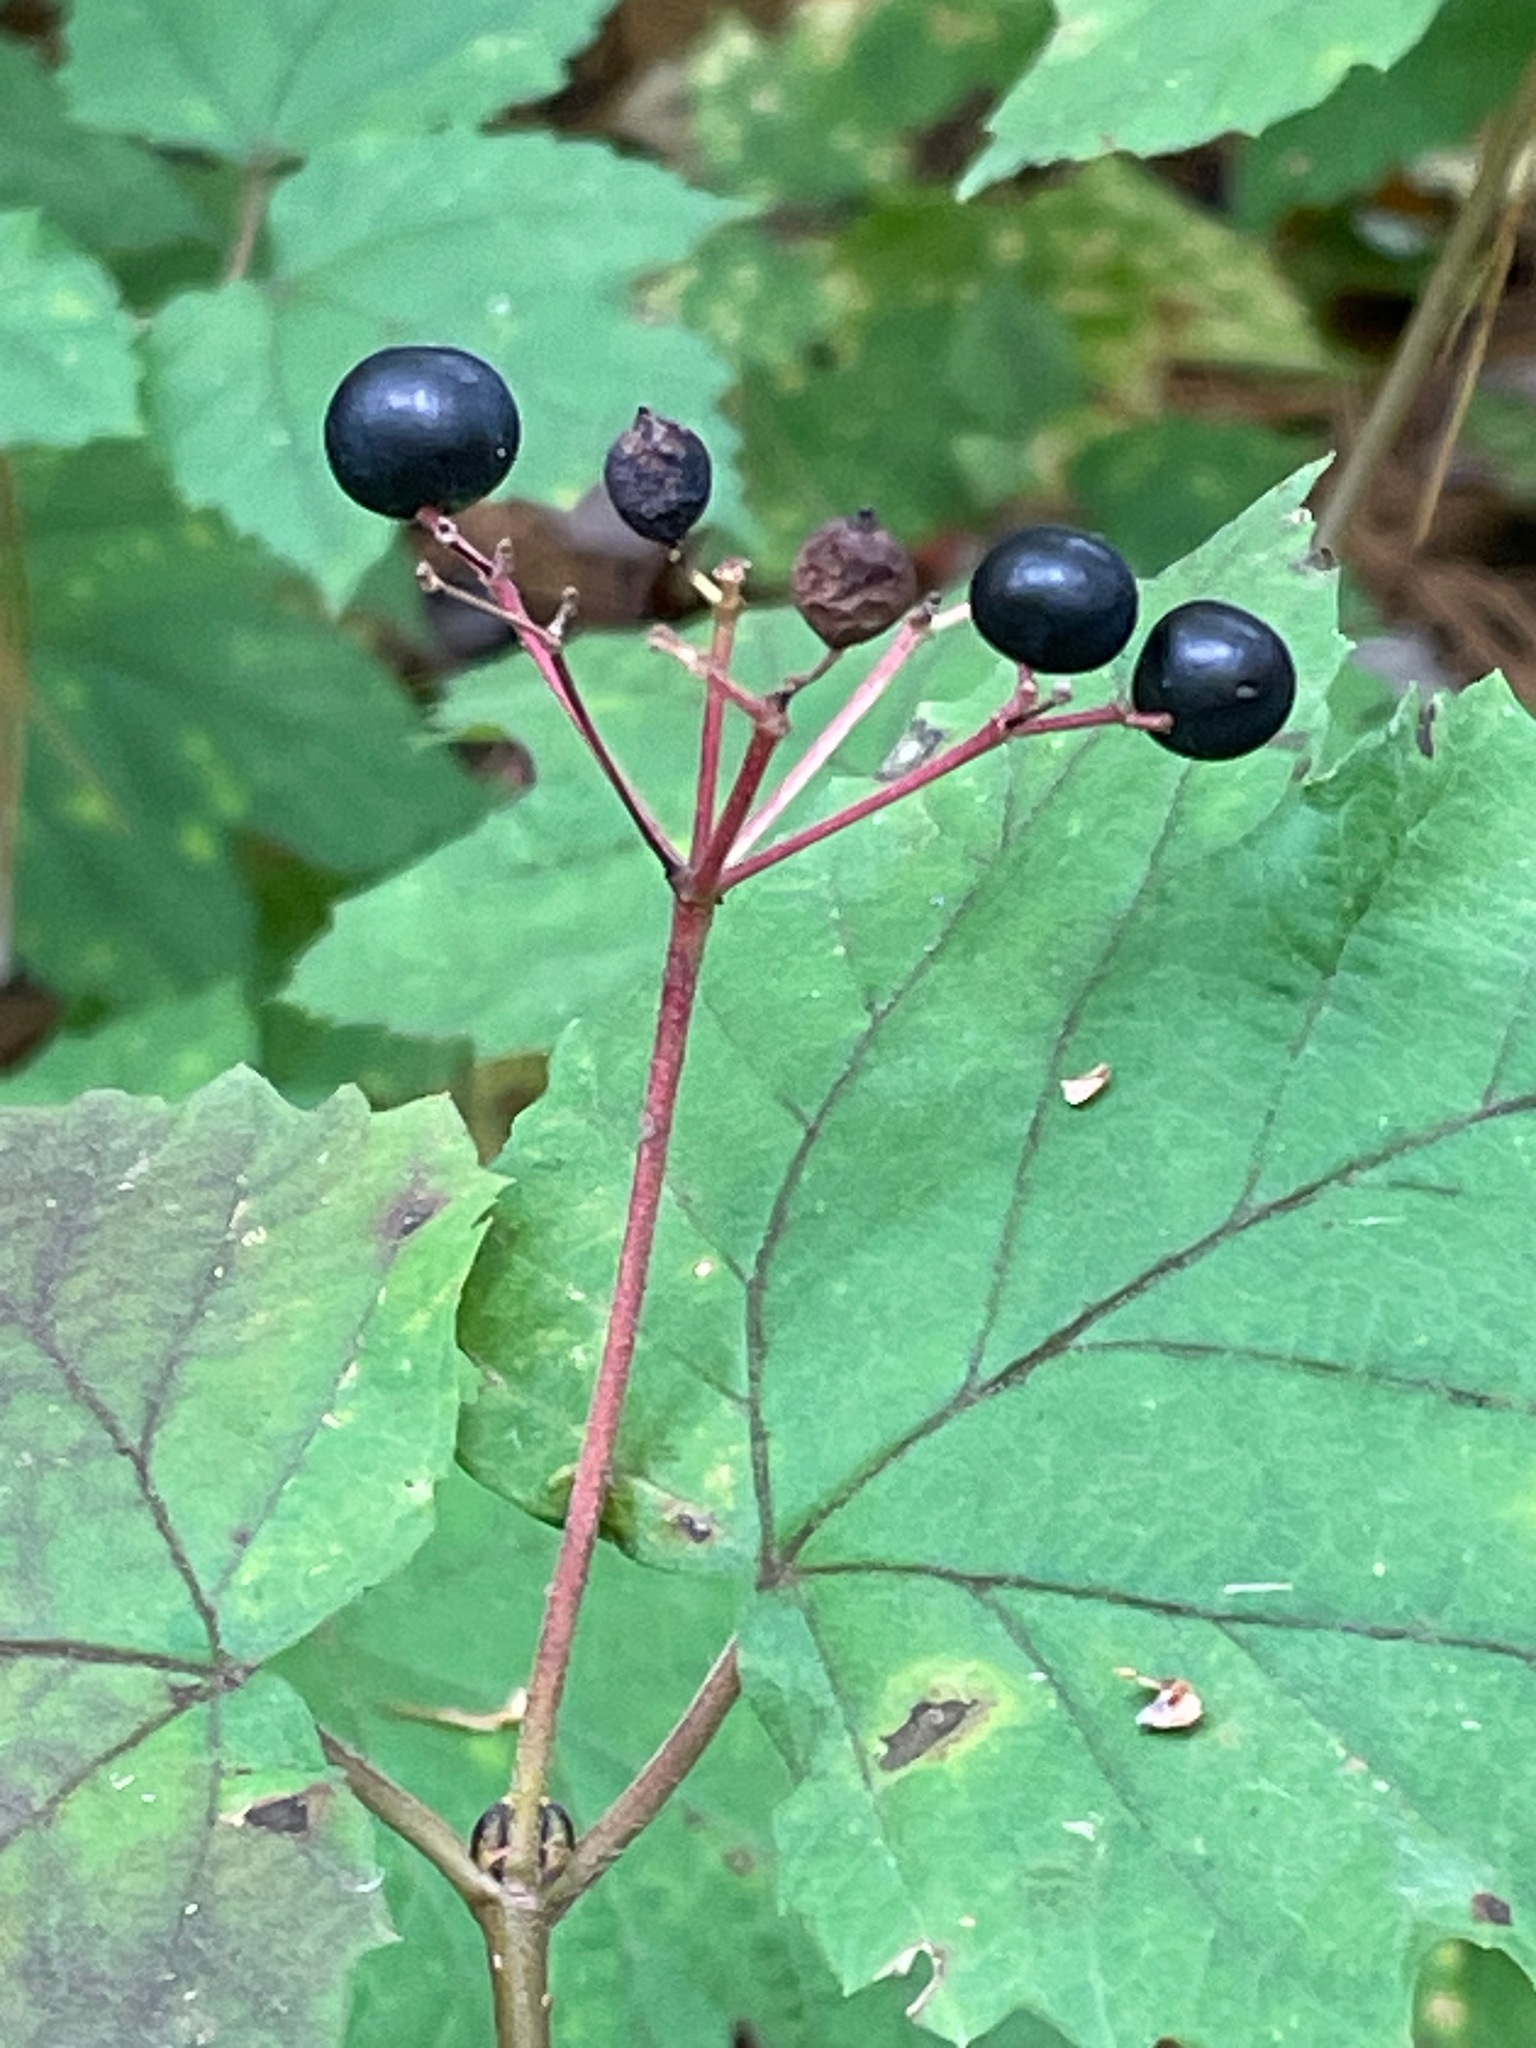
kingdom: Plantae
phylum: Tracheophyta
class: Magnoliopsida
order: Dipsacales
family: Viburnaceae
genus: Viburnum
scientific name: Viburnum acerifolium
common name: Dockmackie
